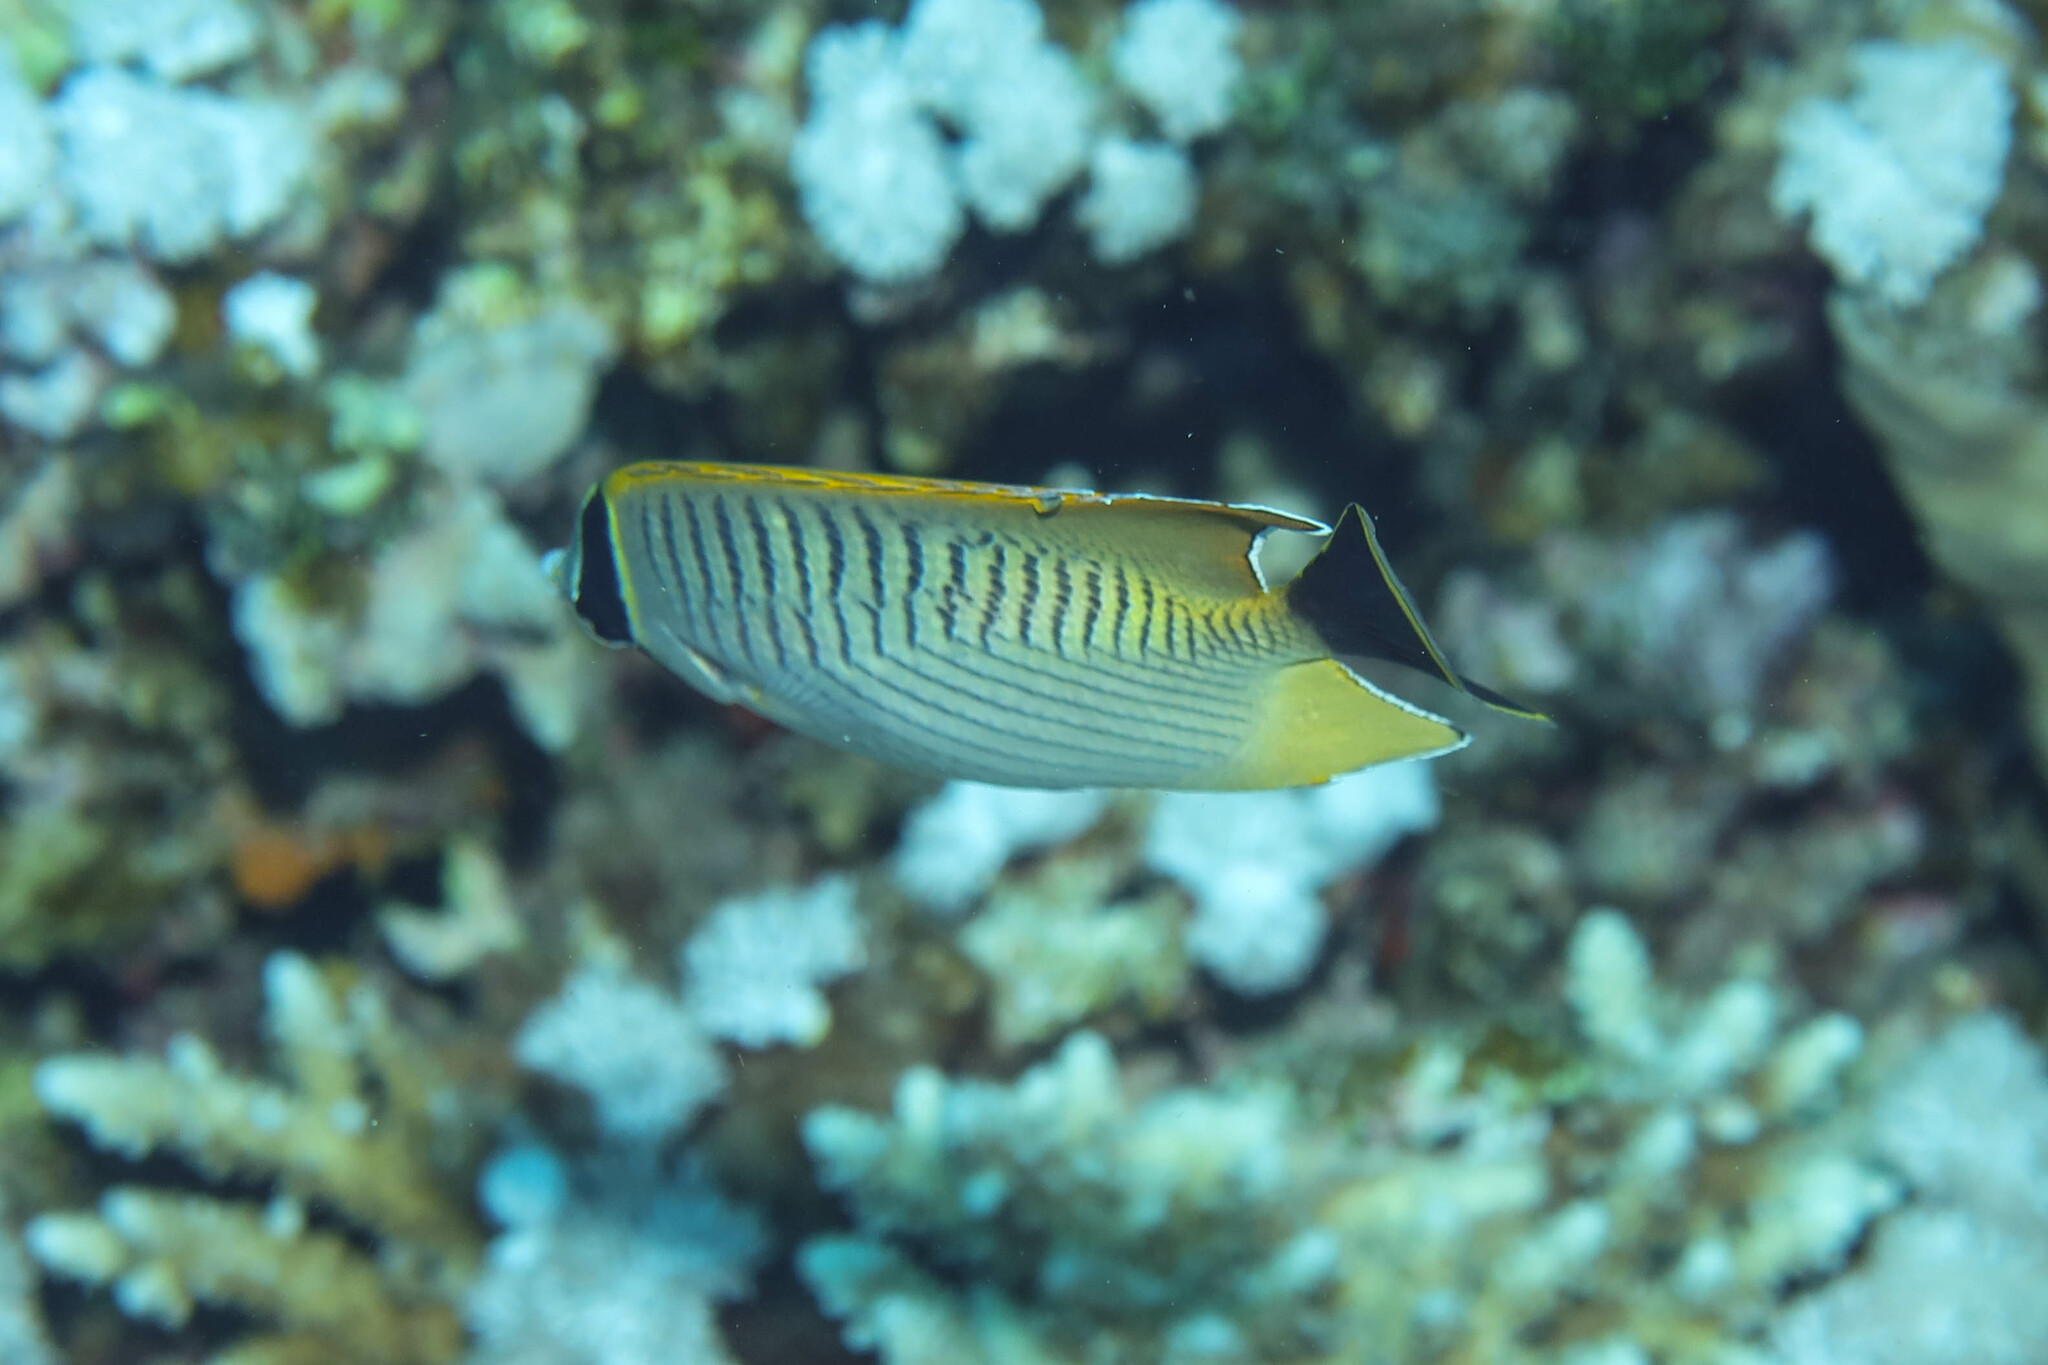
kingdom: Animalia
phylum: Chordata
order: Perciformes
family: Chaetodontidae
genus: Chaetodon
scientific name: Chaetodon trifascialis
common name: Chevroned butterflyfish
